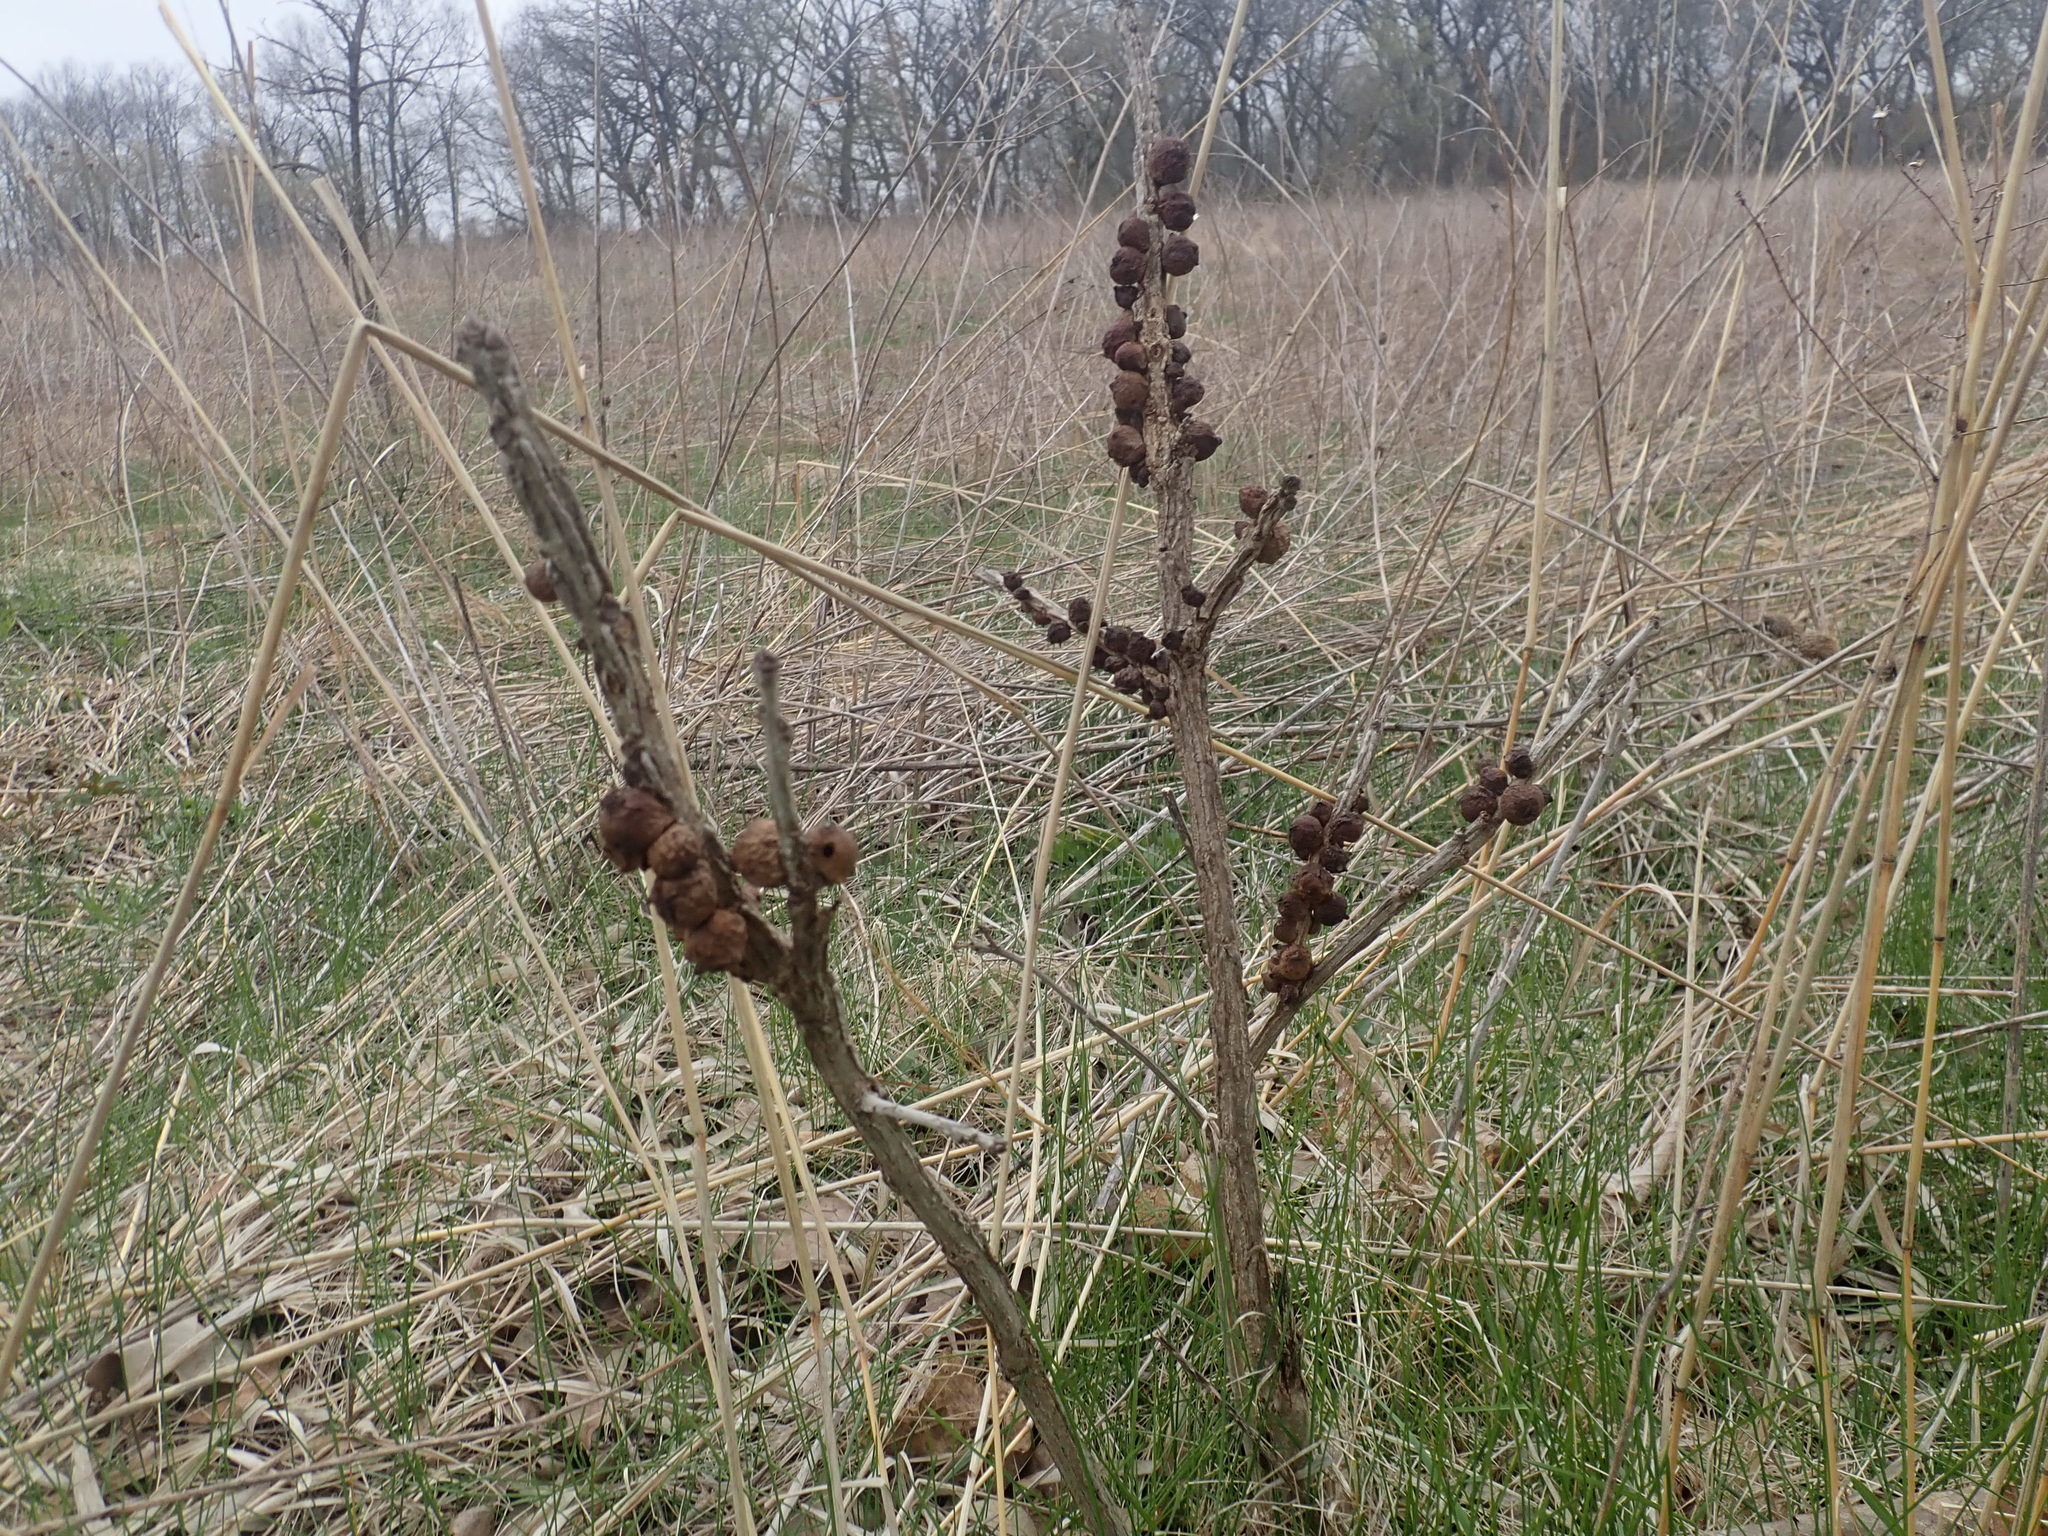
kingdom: Animalia
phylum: Arthropoda
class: Insecta
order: Hymenoptera
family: Cynipidae
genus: Disholcaspis
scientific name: Disholcaspis
